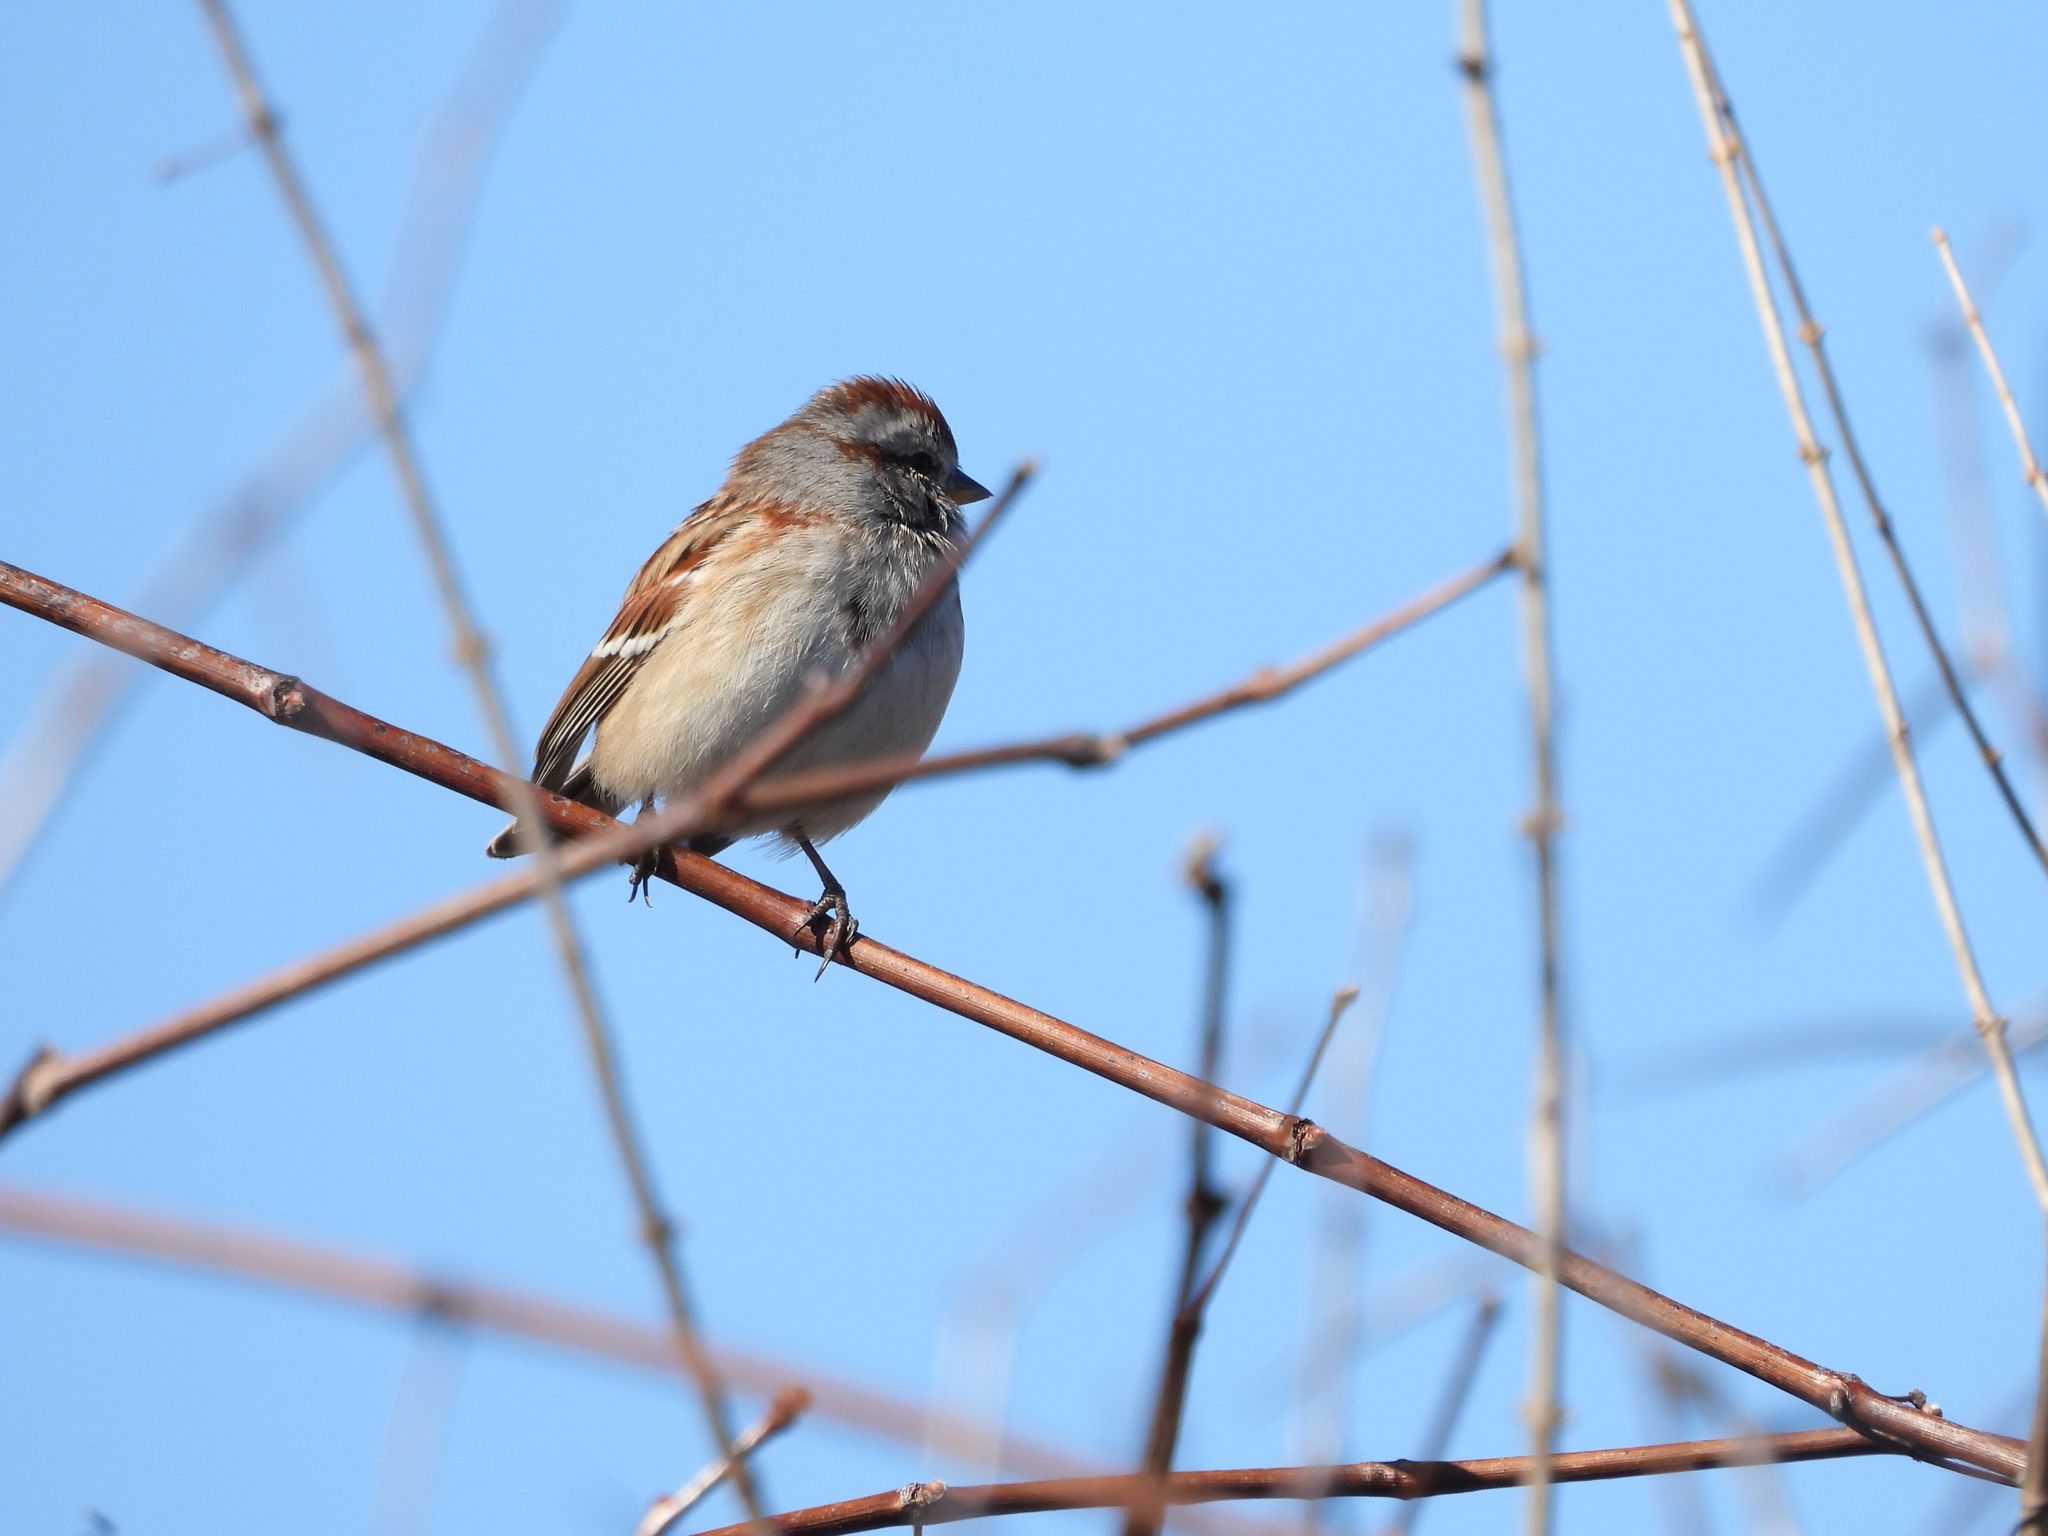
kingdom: Animalia
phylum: Chordata
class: Aves
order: Passeriformes
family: Passerellidae
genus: Spizelloides
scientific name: Spizelloides arborea
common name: American tree sparrow
